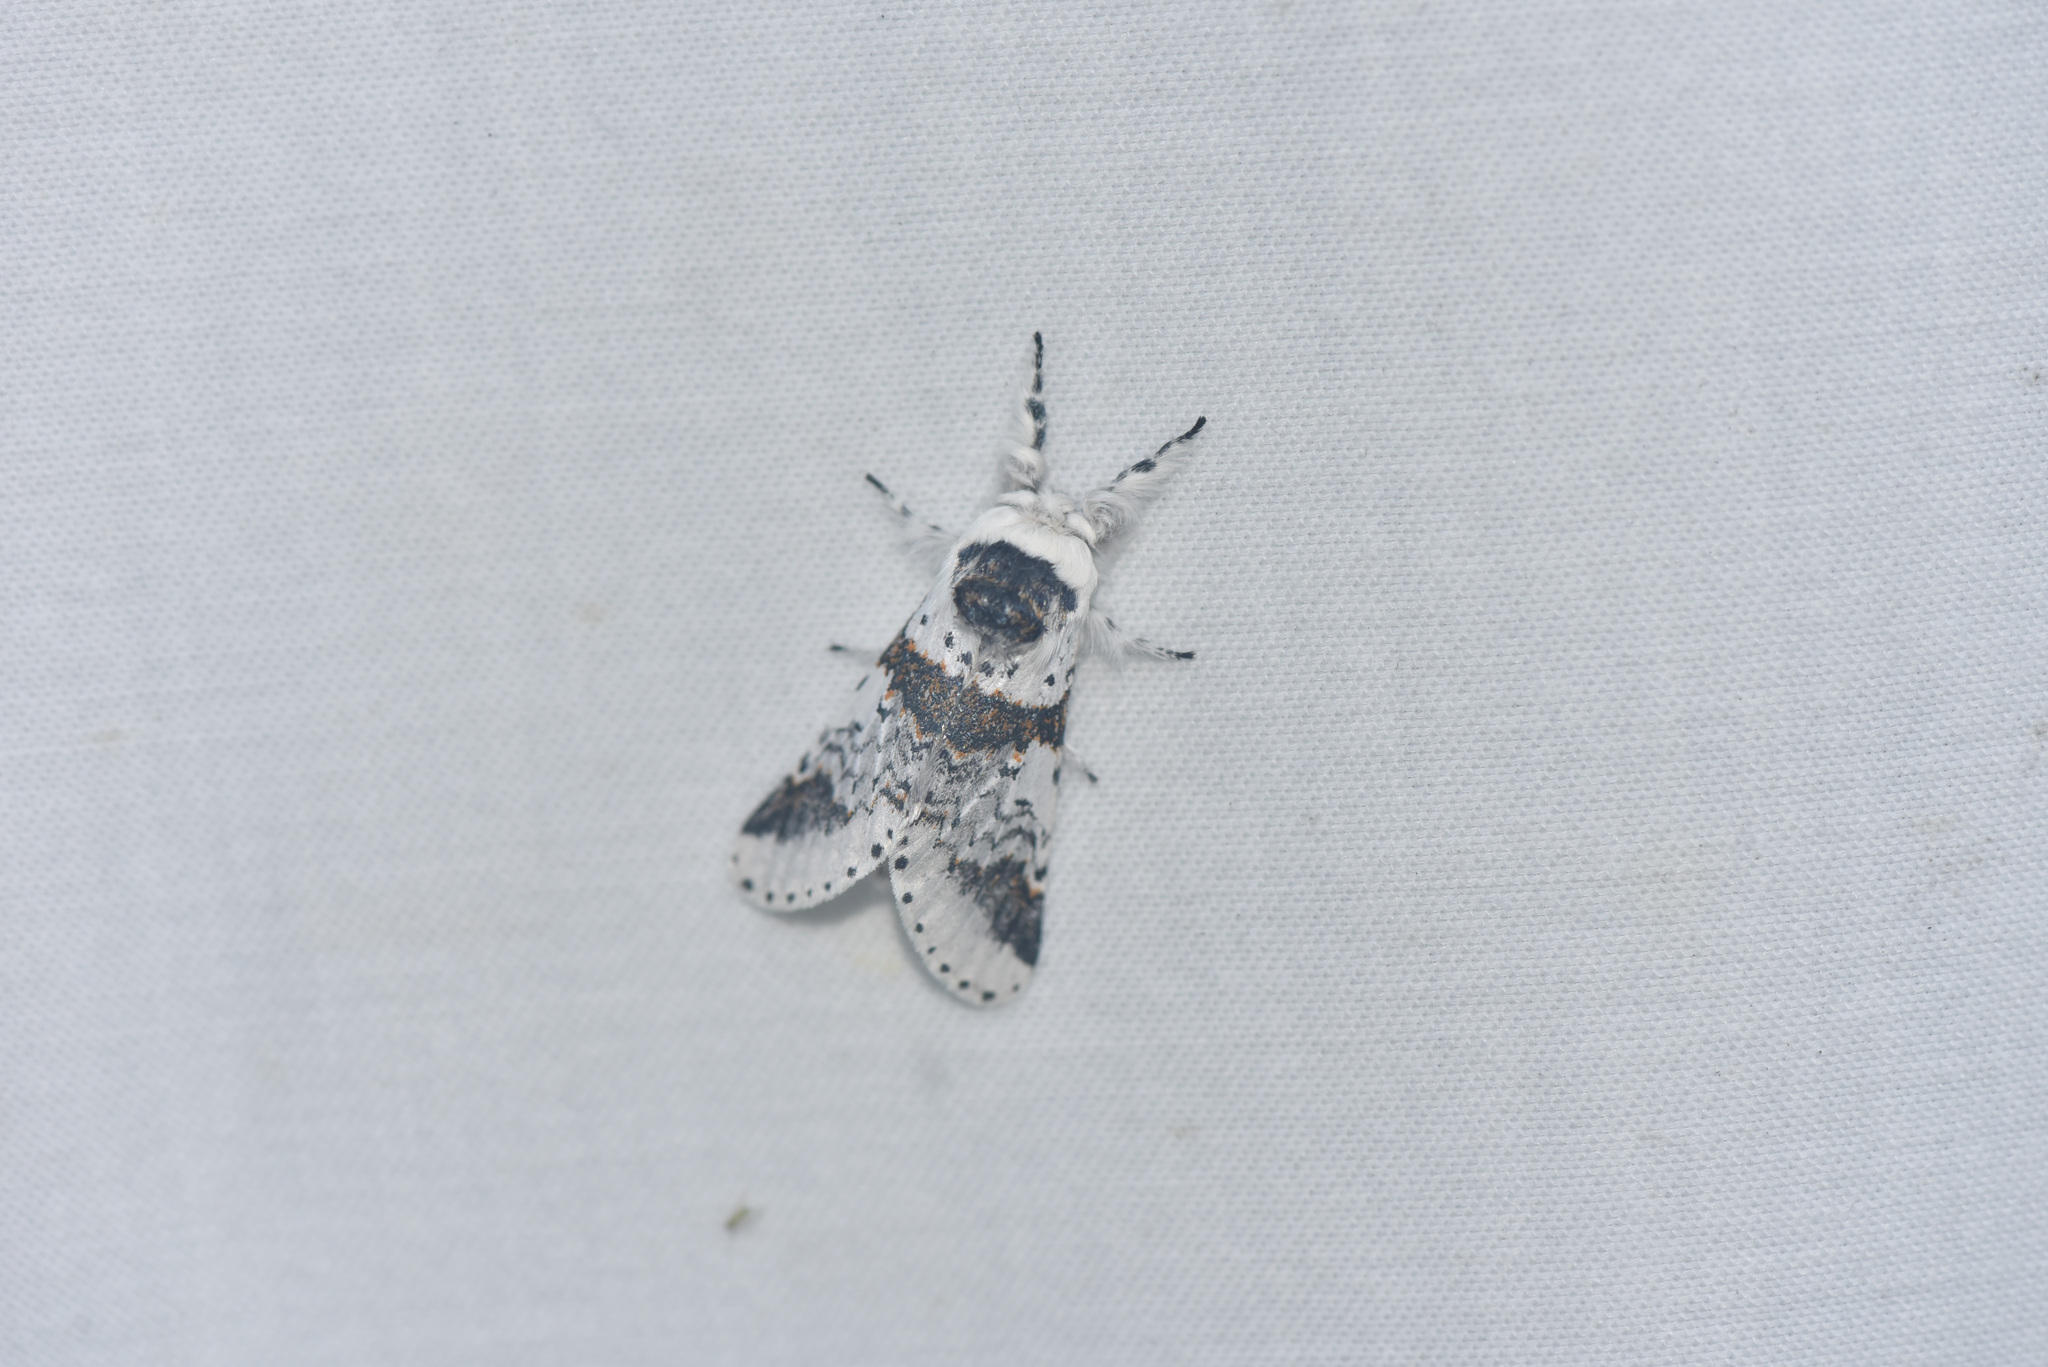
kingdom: Animalia
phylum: Arthropoda
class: Insecta
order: Lepidoptera
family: Notodontidae
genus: Furcula
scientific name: Furcula scolopendrina
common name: Zigzag furcula moth
